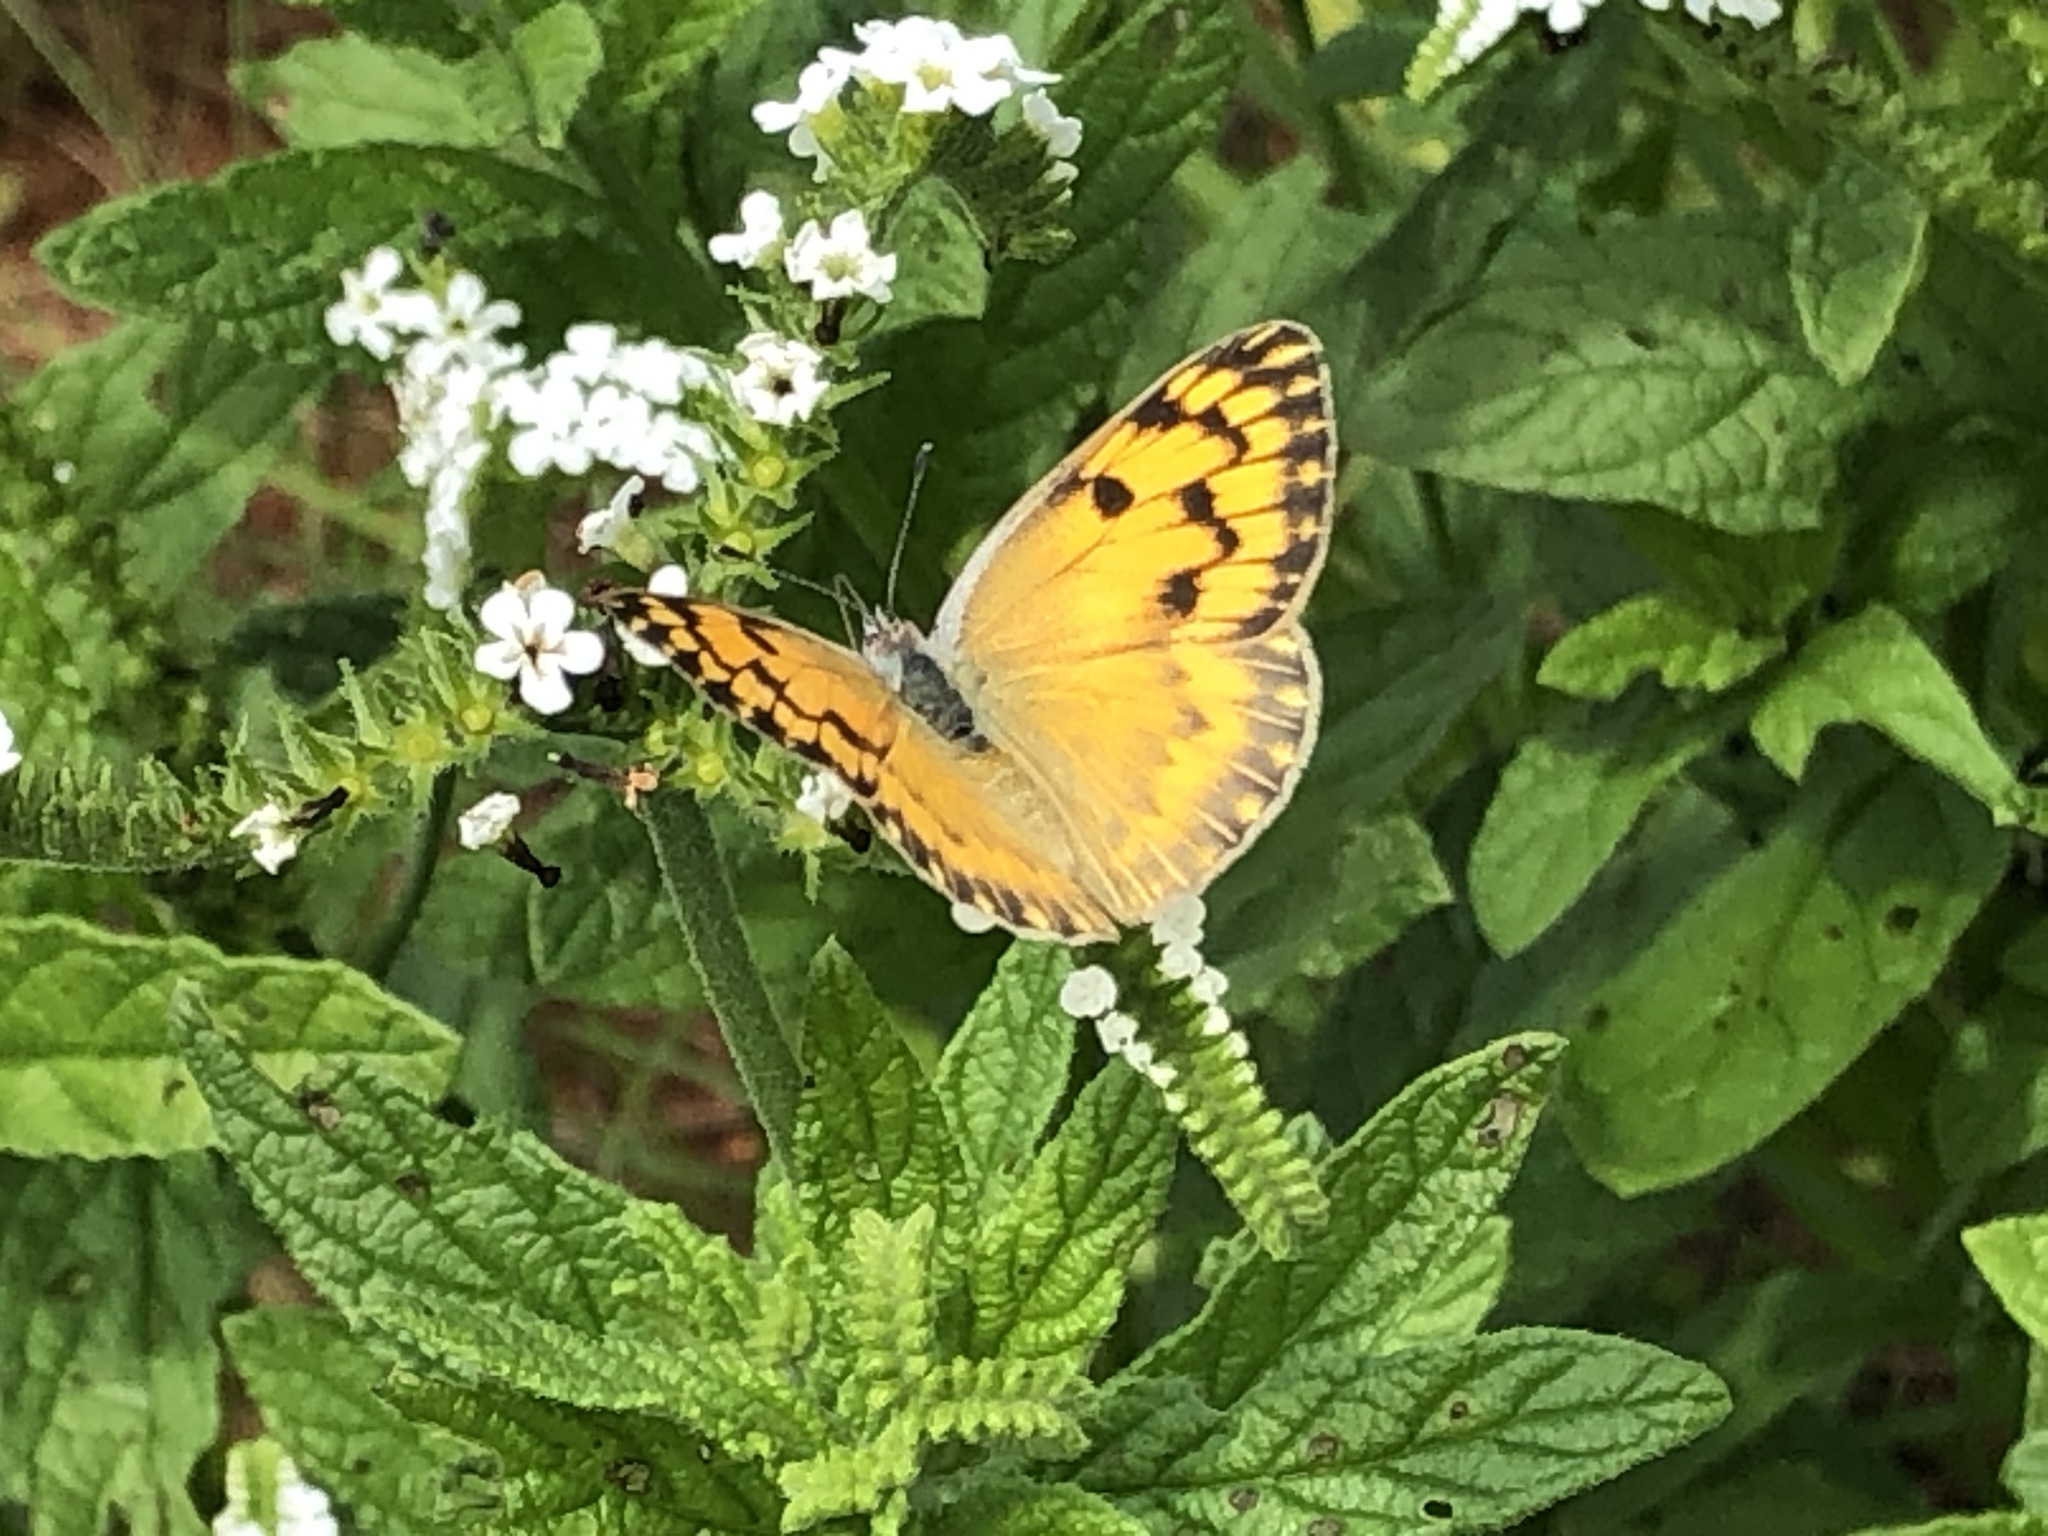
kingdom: Animalia
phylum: Arthropoda
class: Insecta
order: Lepidoptera
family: Pieridae
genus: Colotis
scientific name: Colotis aurigineus
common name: African golden arab
